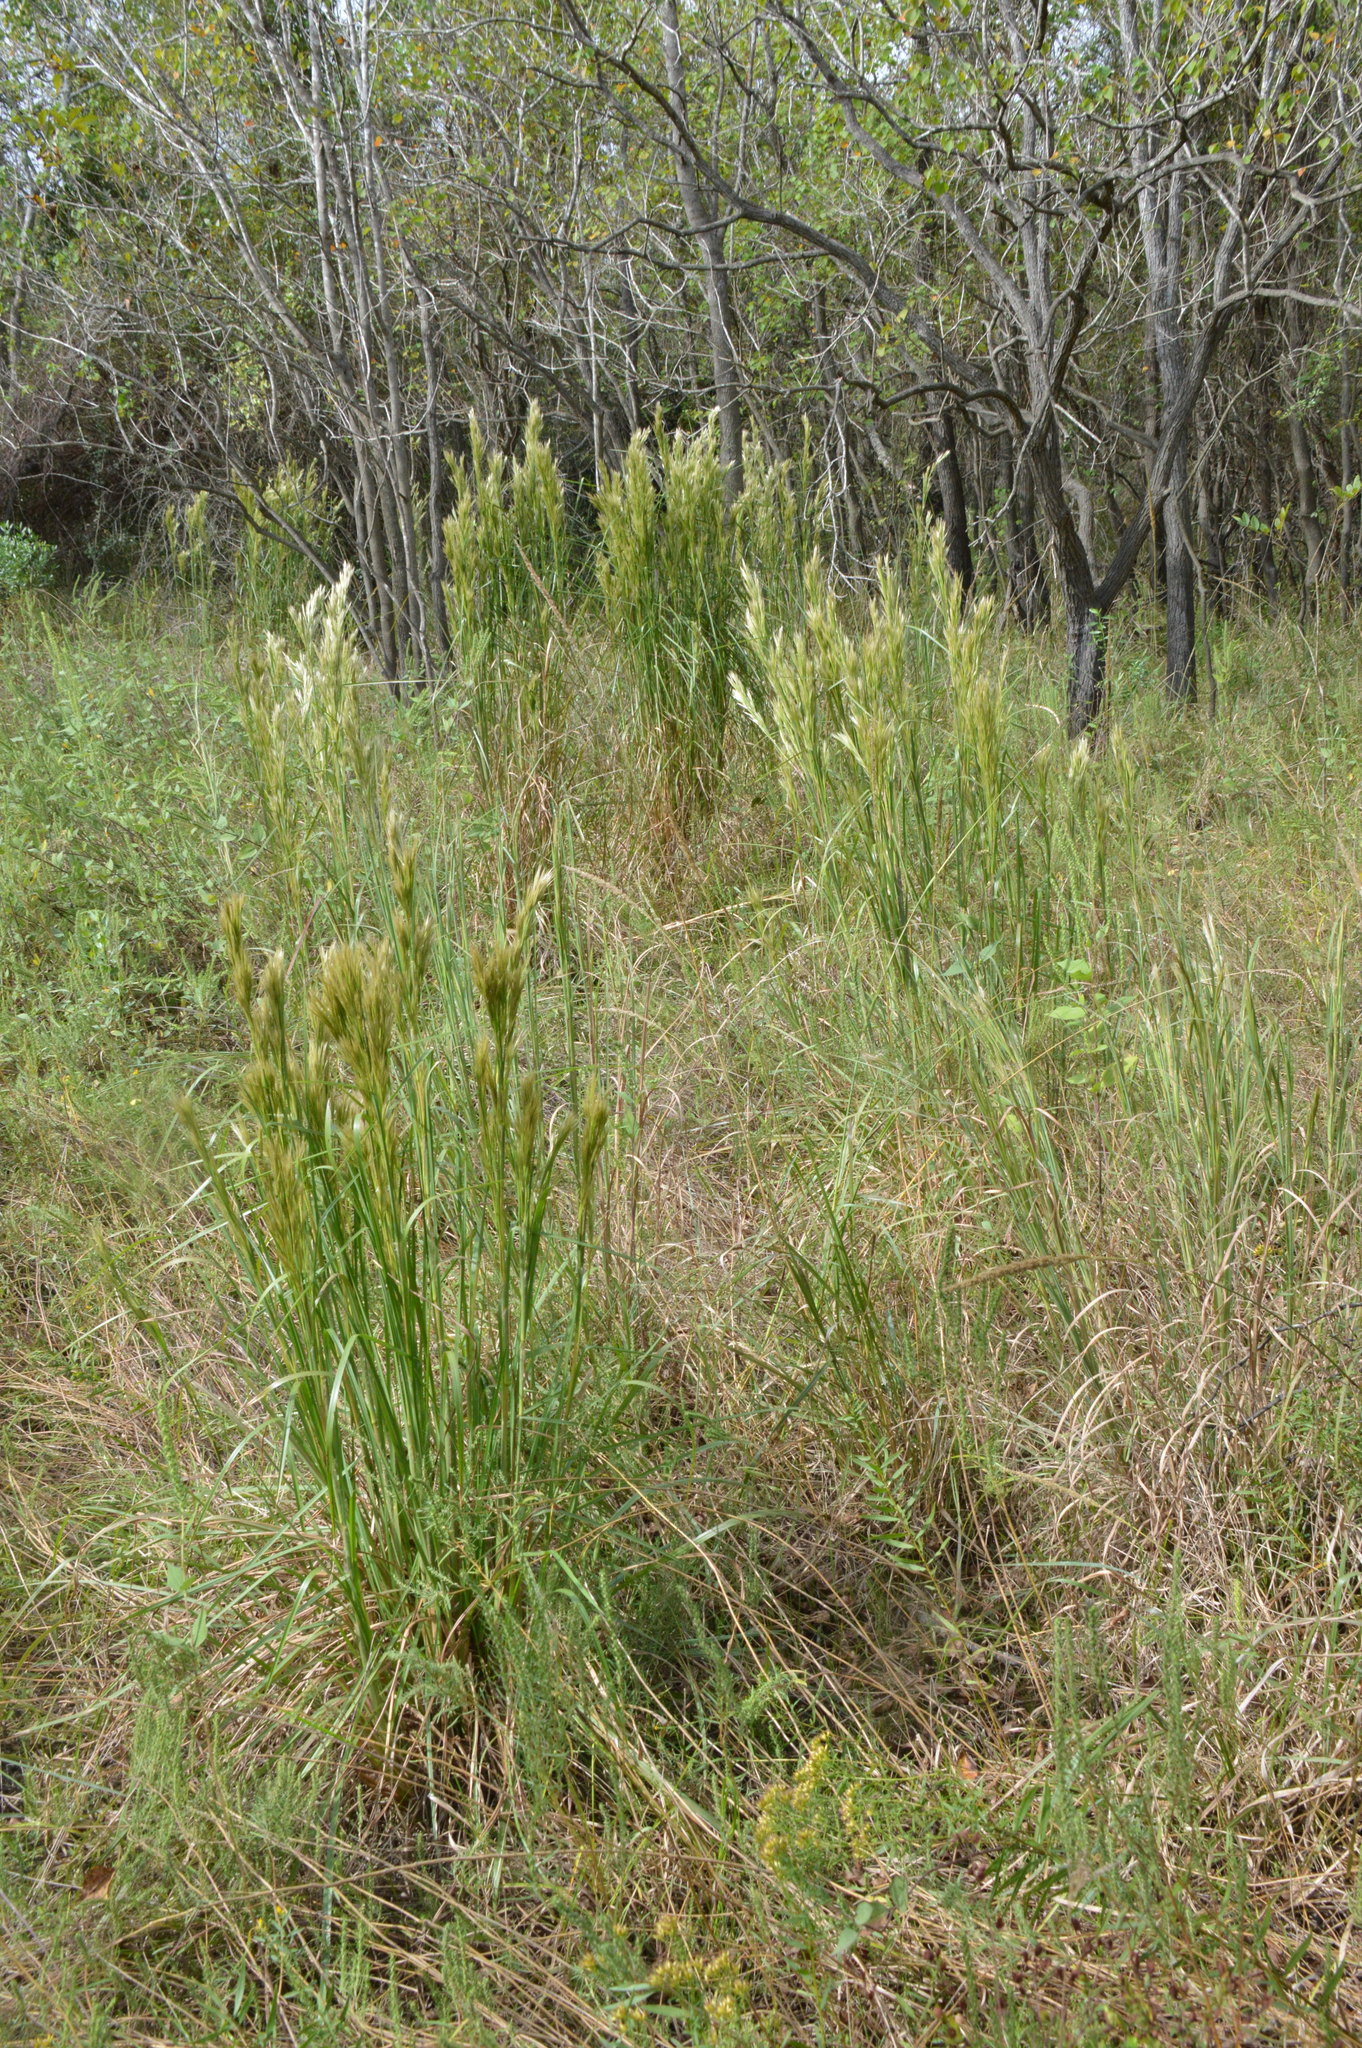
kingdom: Plantae
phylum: Tracheophyta
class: Liliopsida
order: Poales
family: Poaceae
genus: Andropogon
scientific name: Andropogon tenuispatheus
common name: Bushy bluestem
